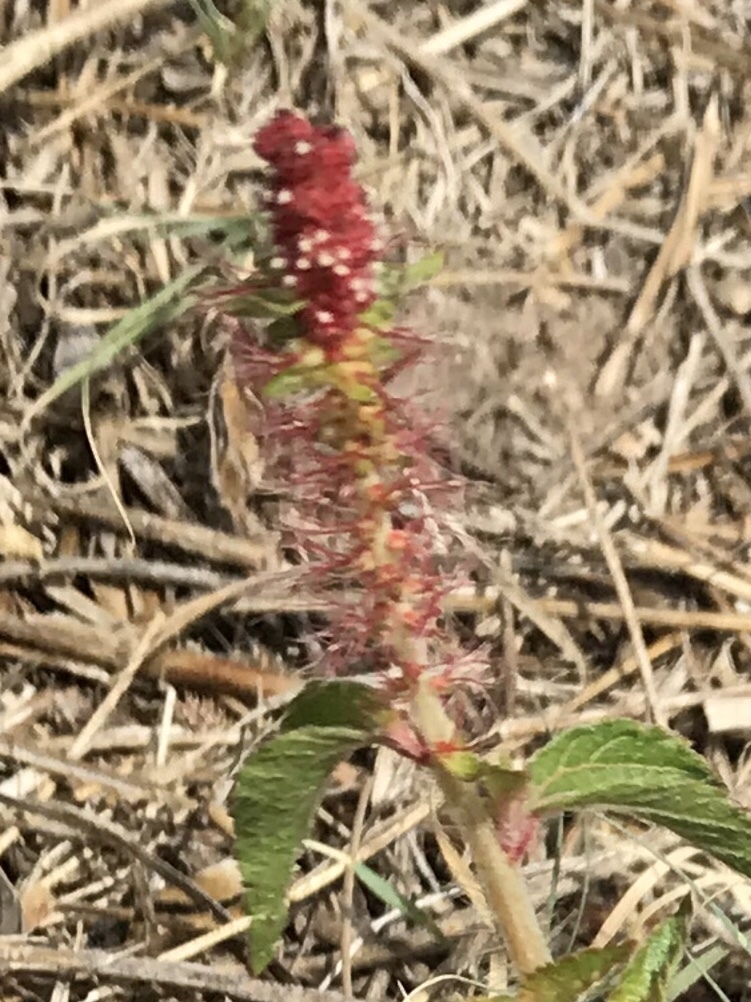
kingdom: Plantae
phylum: Tracheophyta
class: Magnoliopsida
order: Malpighiales
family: Euphorbiaceae
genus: Acalypha
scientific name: Acalypha phleoides
